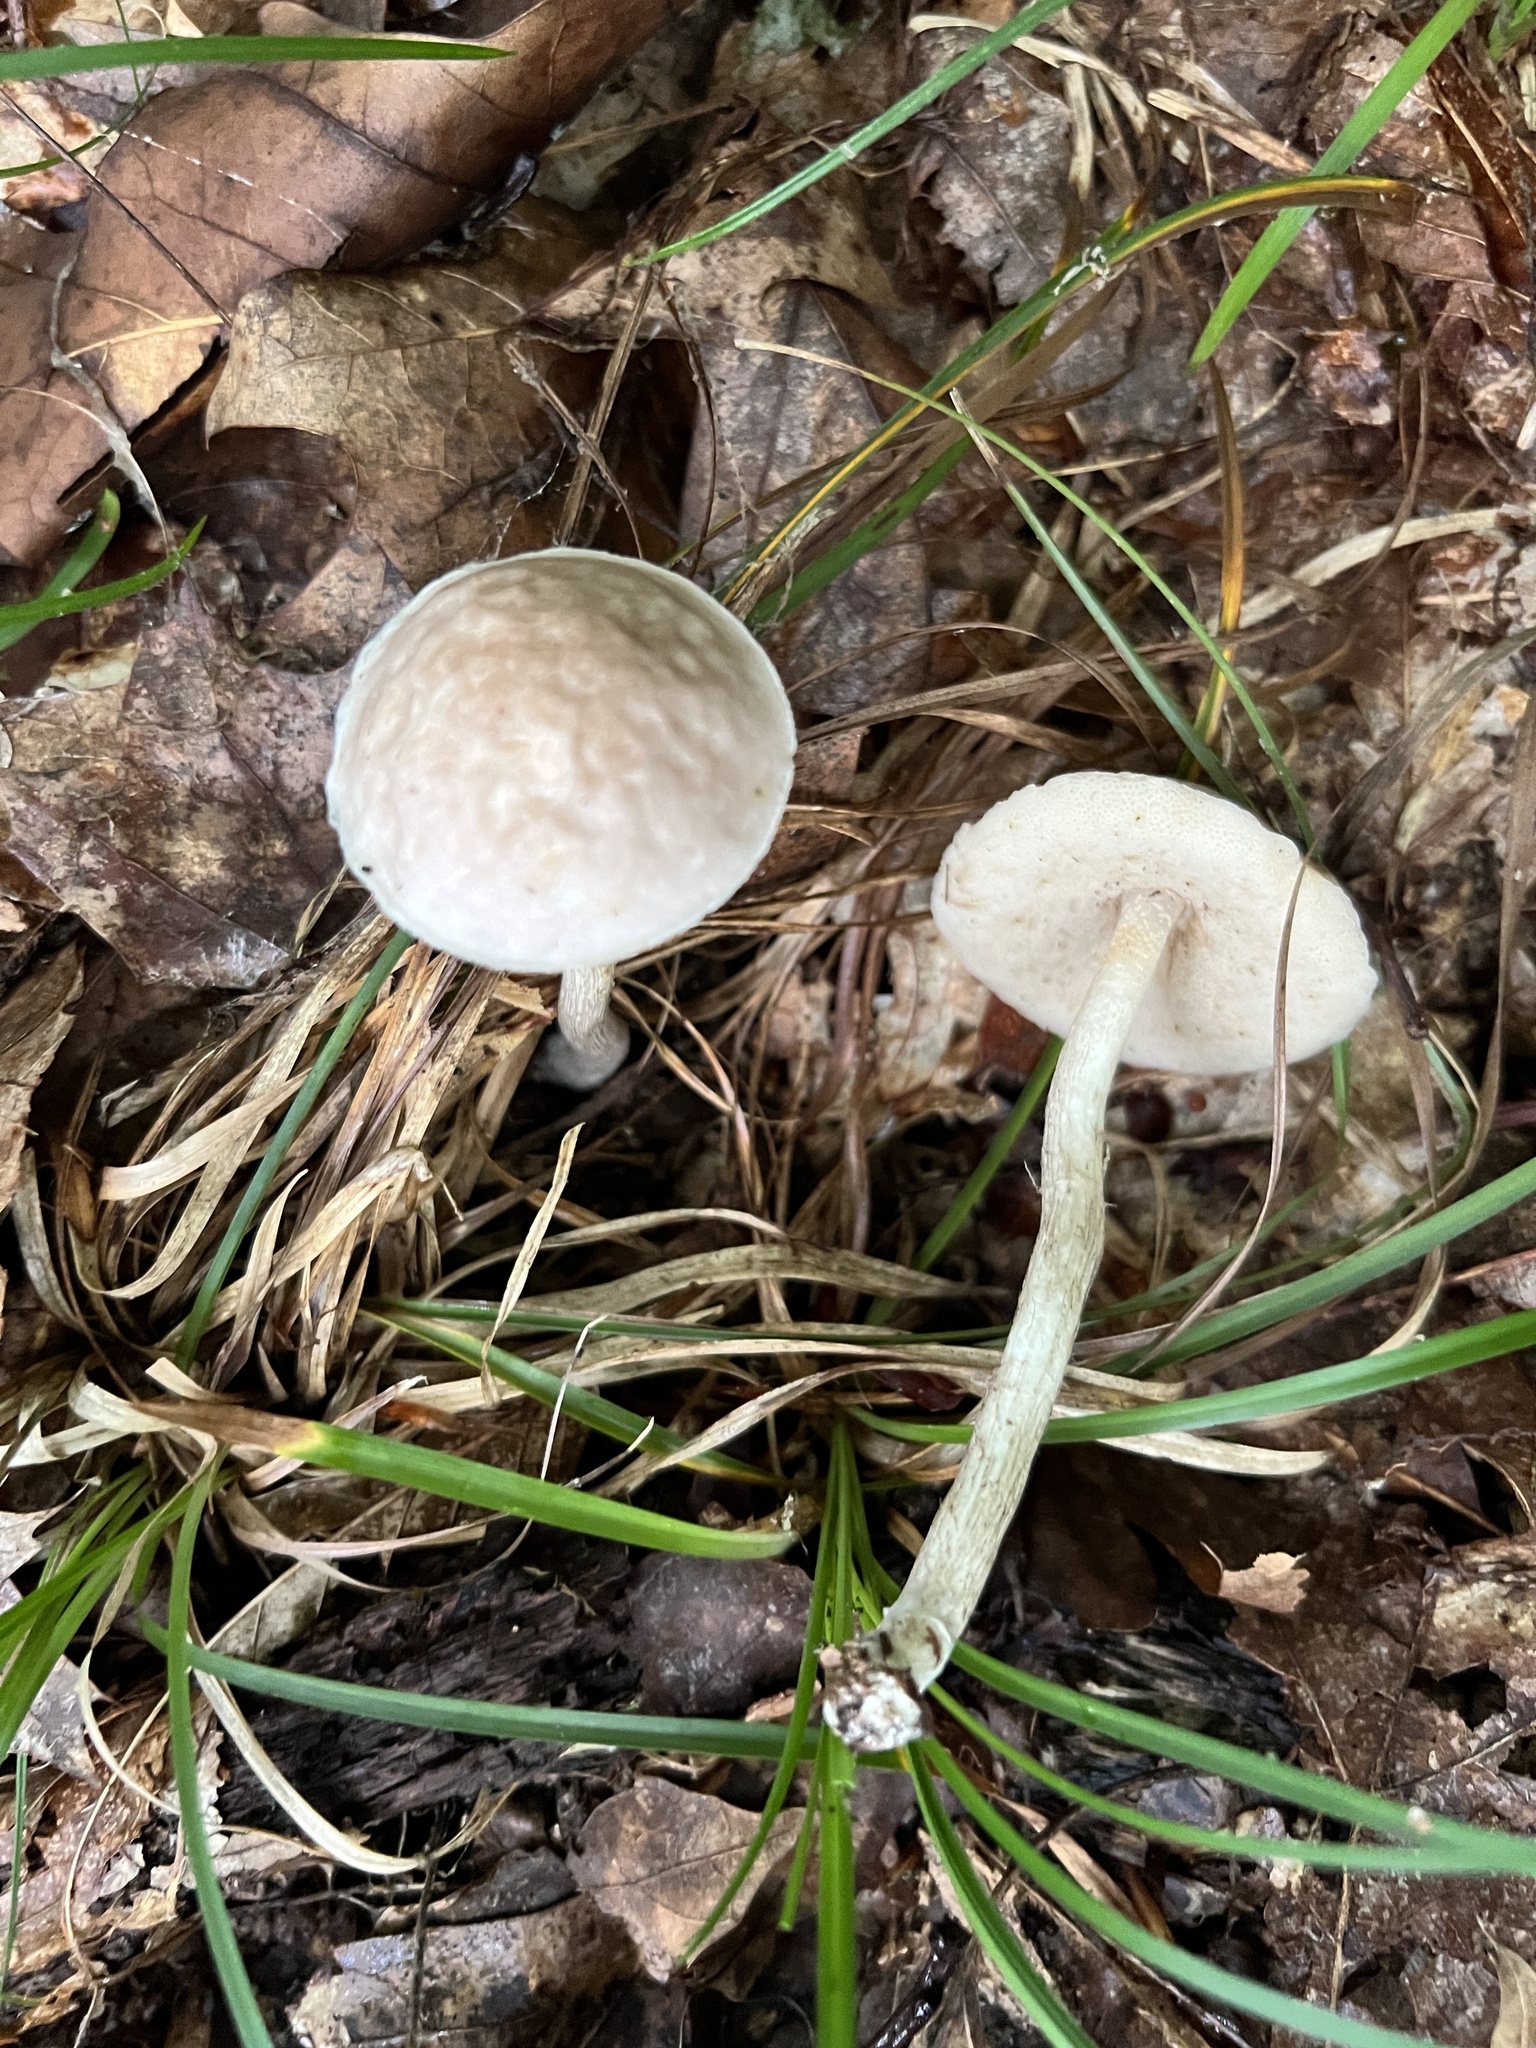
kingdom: Fungi
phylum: Basidiomycota
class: Agaricomycetes
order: Boletales
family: Boletaceae
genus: Leccinellum
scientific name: Leccinellum albellum
